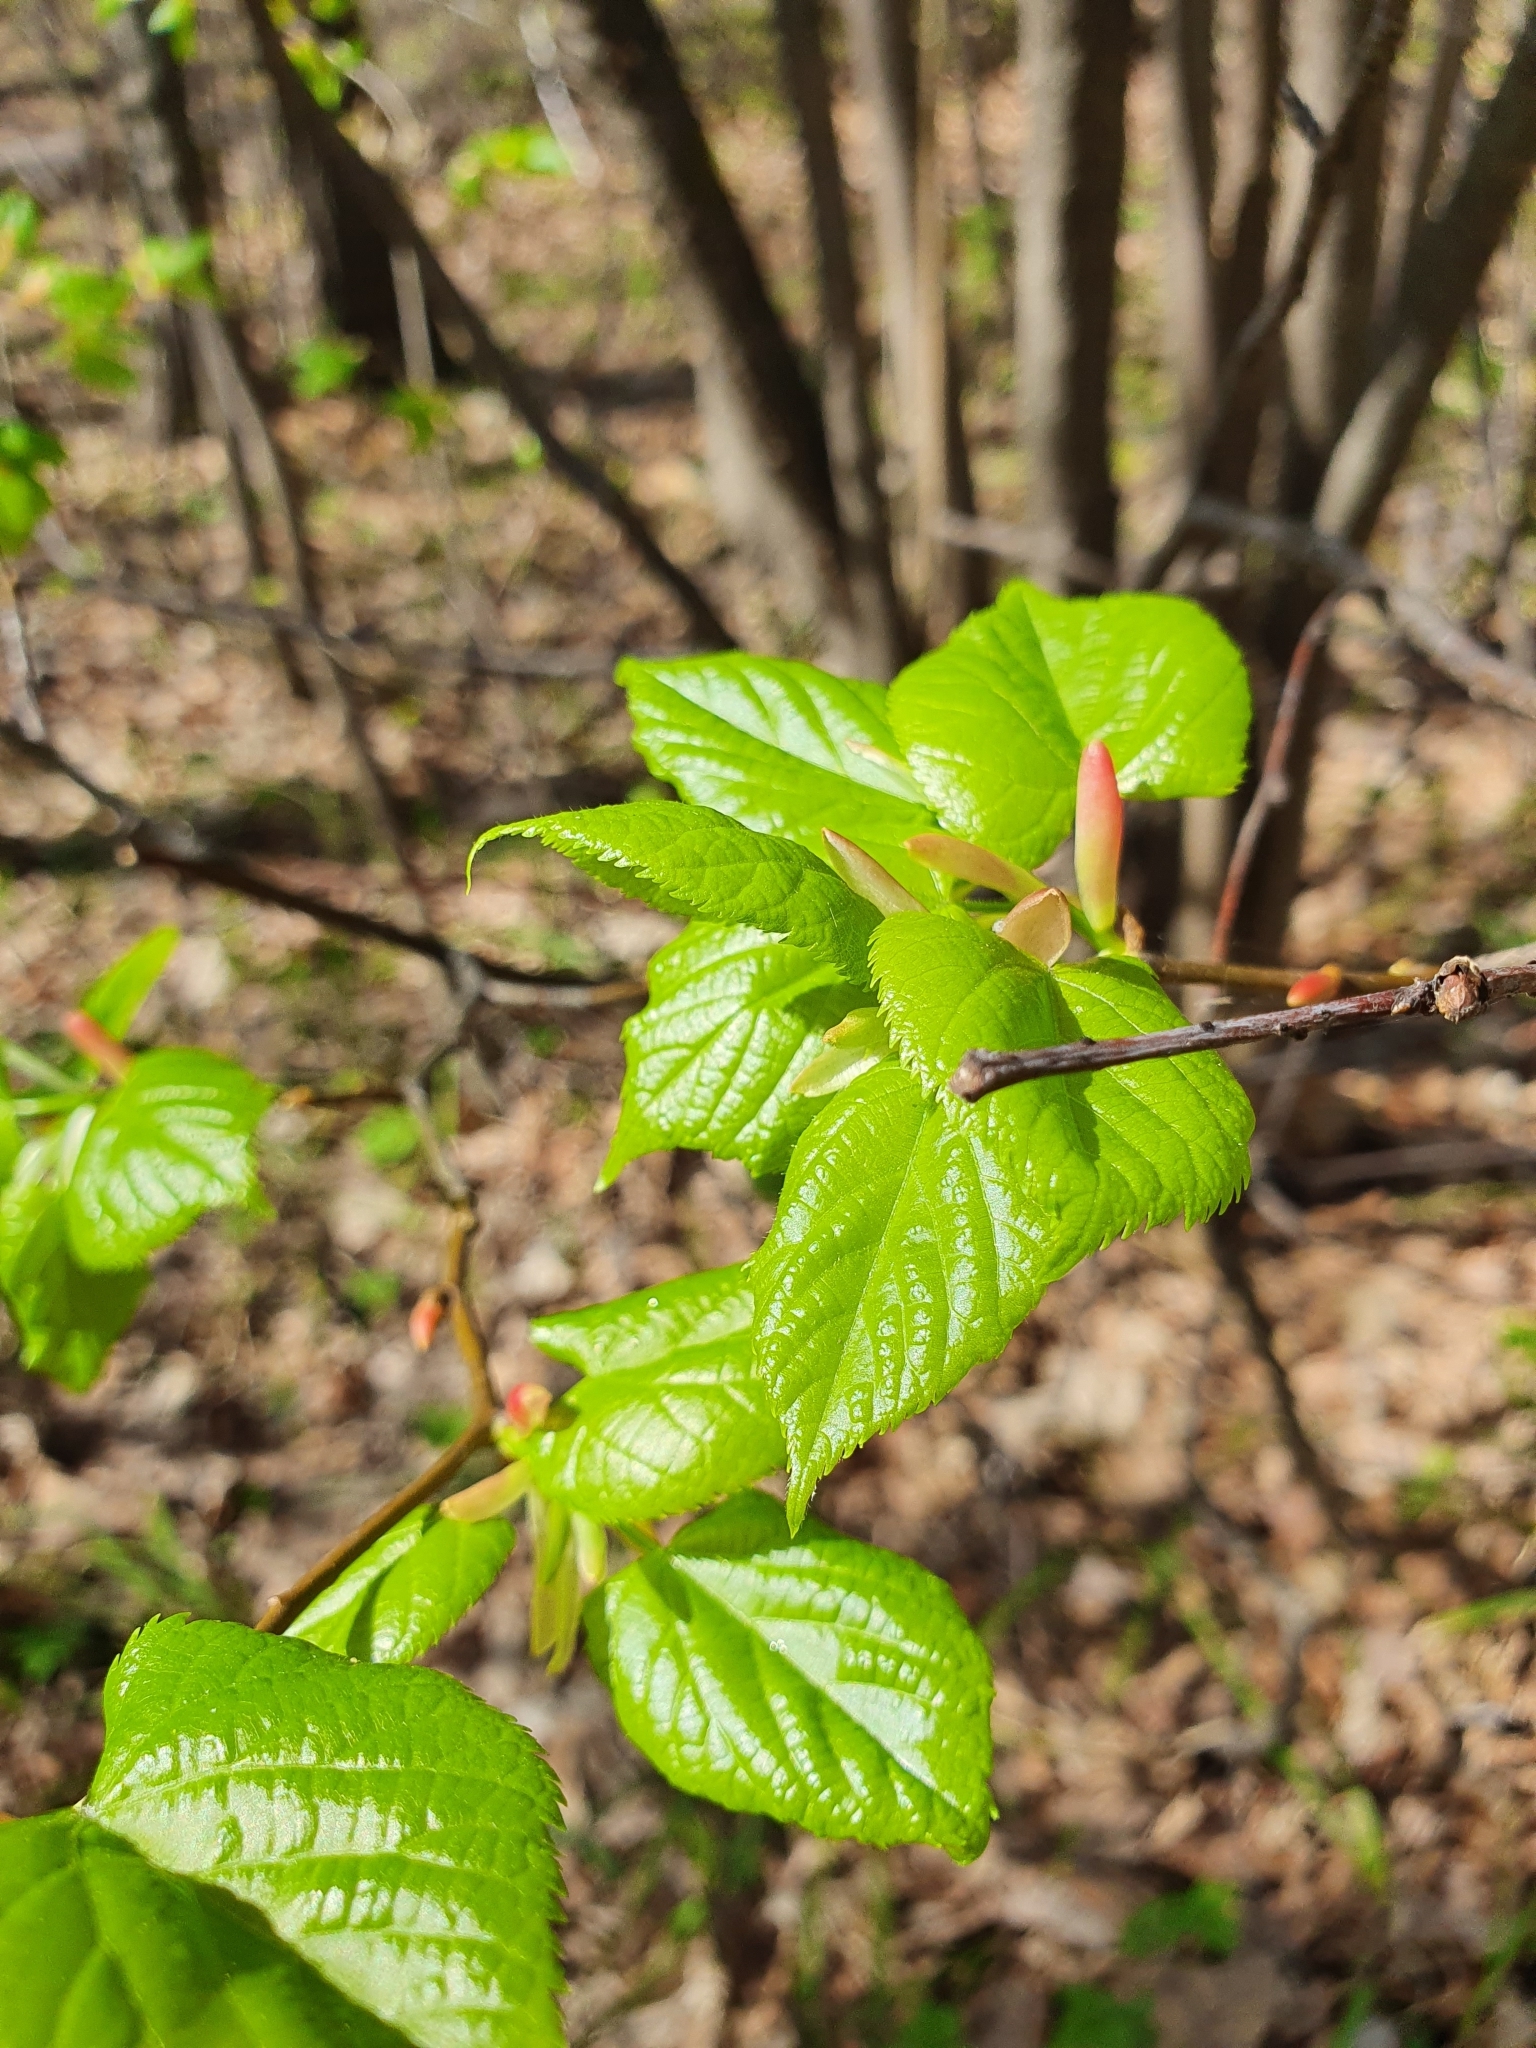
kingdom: Plantae
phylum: Tracheophyta
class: Magnoliopsida
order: Malvales
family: Malvaceae
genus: Tilia
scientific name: Tilia cordata
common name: Small-leaved lime
